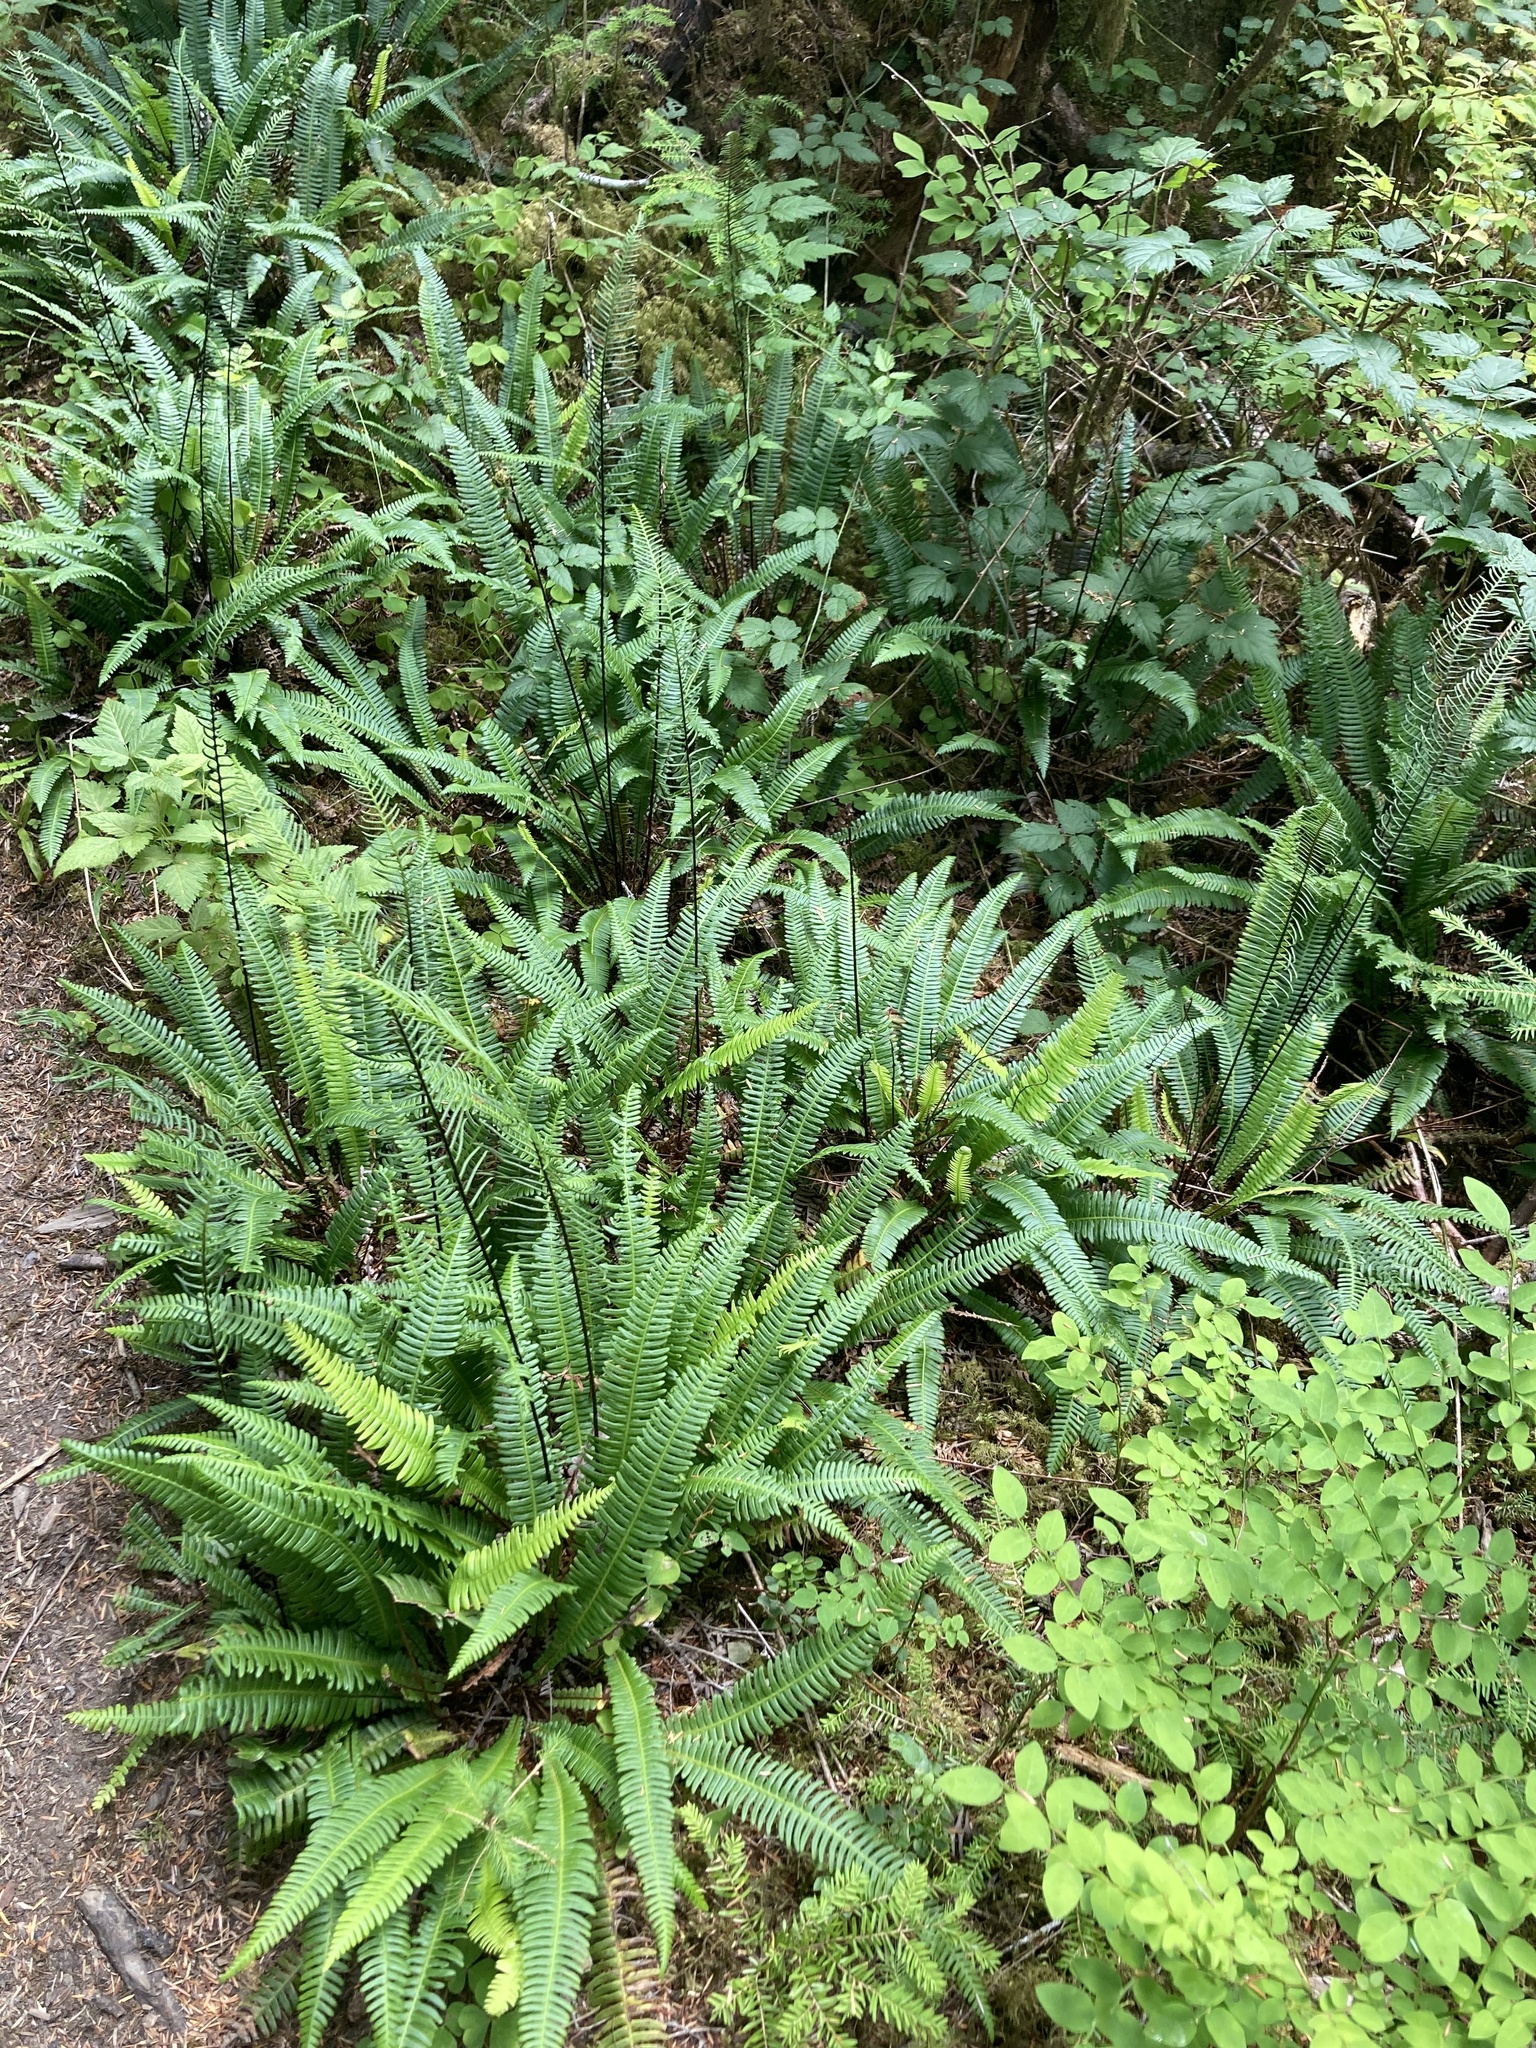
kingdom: Plantae
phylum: Tracheophyta
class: Polypodiopsida
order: Polypodiales
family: Blechnaceae
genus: Struthiopteris
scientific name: Struthiopteris spicant
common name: Deer fern
